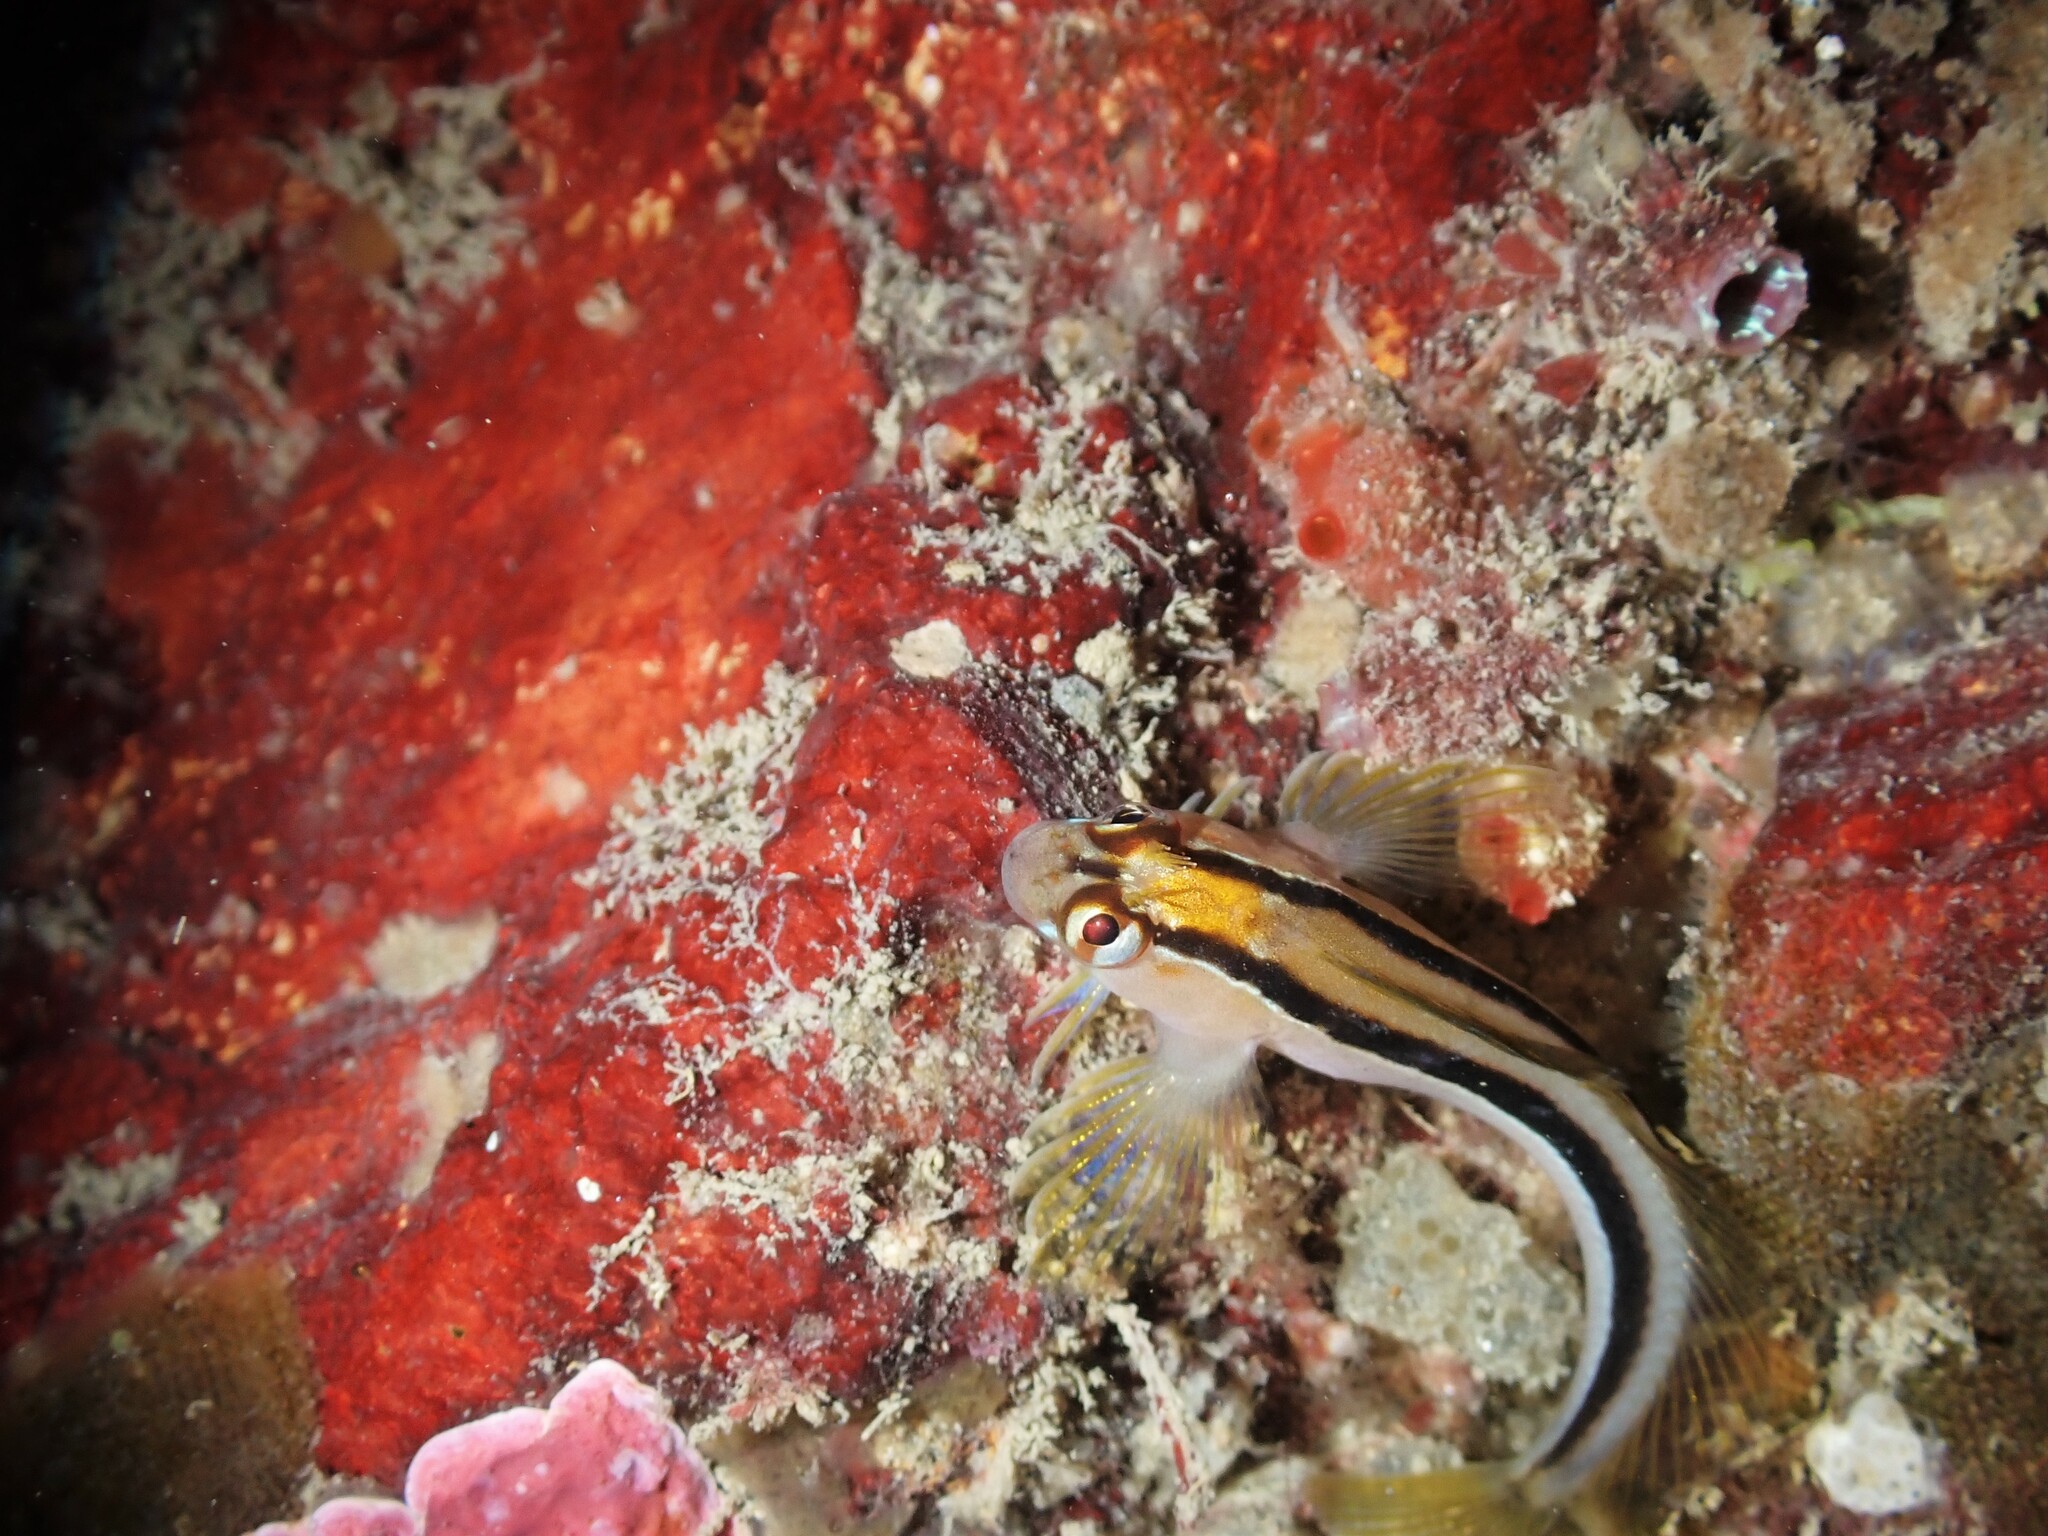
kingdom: Animalia
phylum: Chordata
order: Perciformes
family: Blenniidae
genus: Parablennius
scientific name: Parablennius laticlavius
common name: Crested blenny
